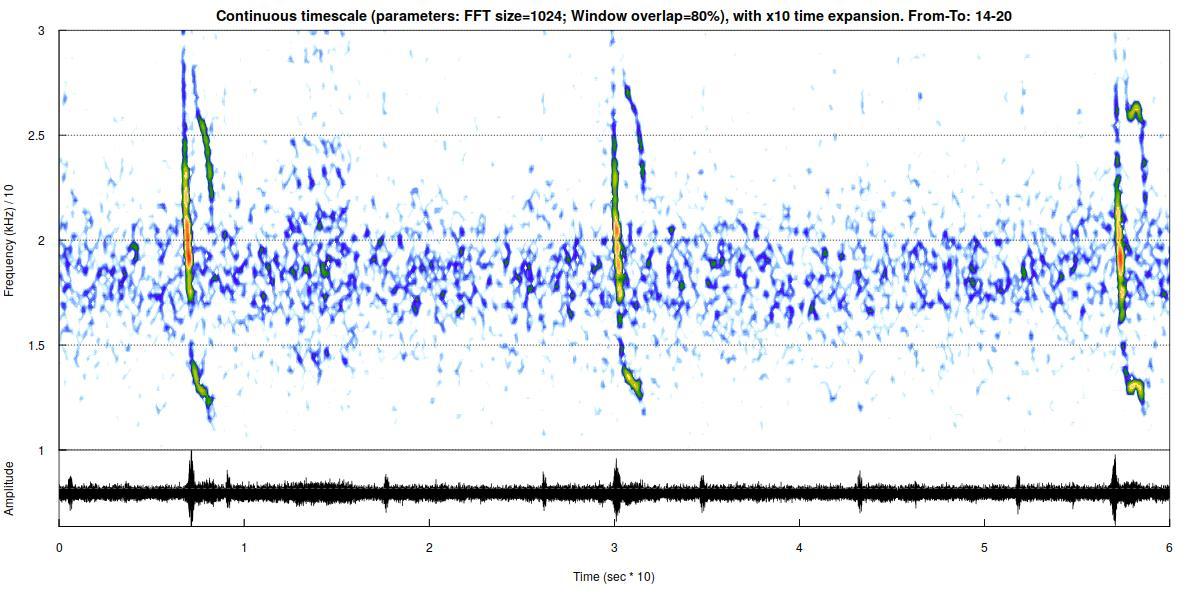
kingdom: Animalia
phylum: Chordata
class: Mammalia
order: Chiroptera
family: Vespertilionidae
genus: Vespertilio
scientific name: Vespertilio murinus
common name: Particolored bat
